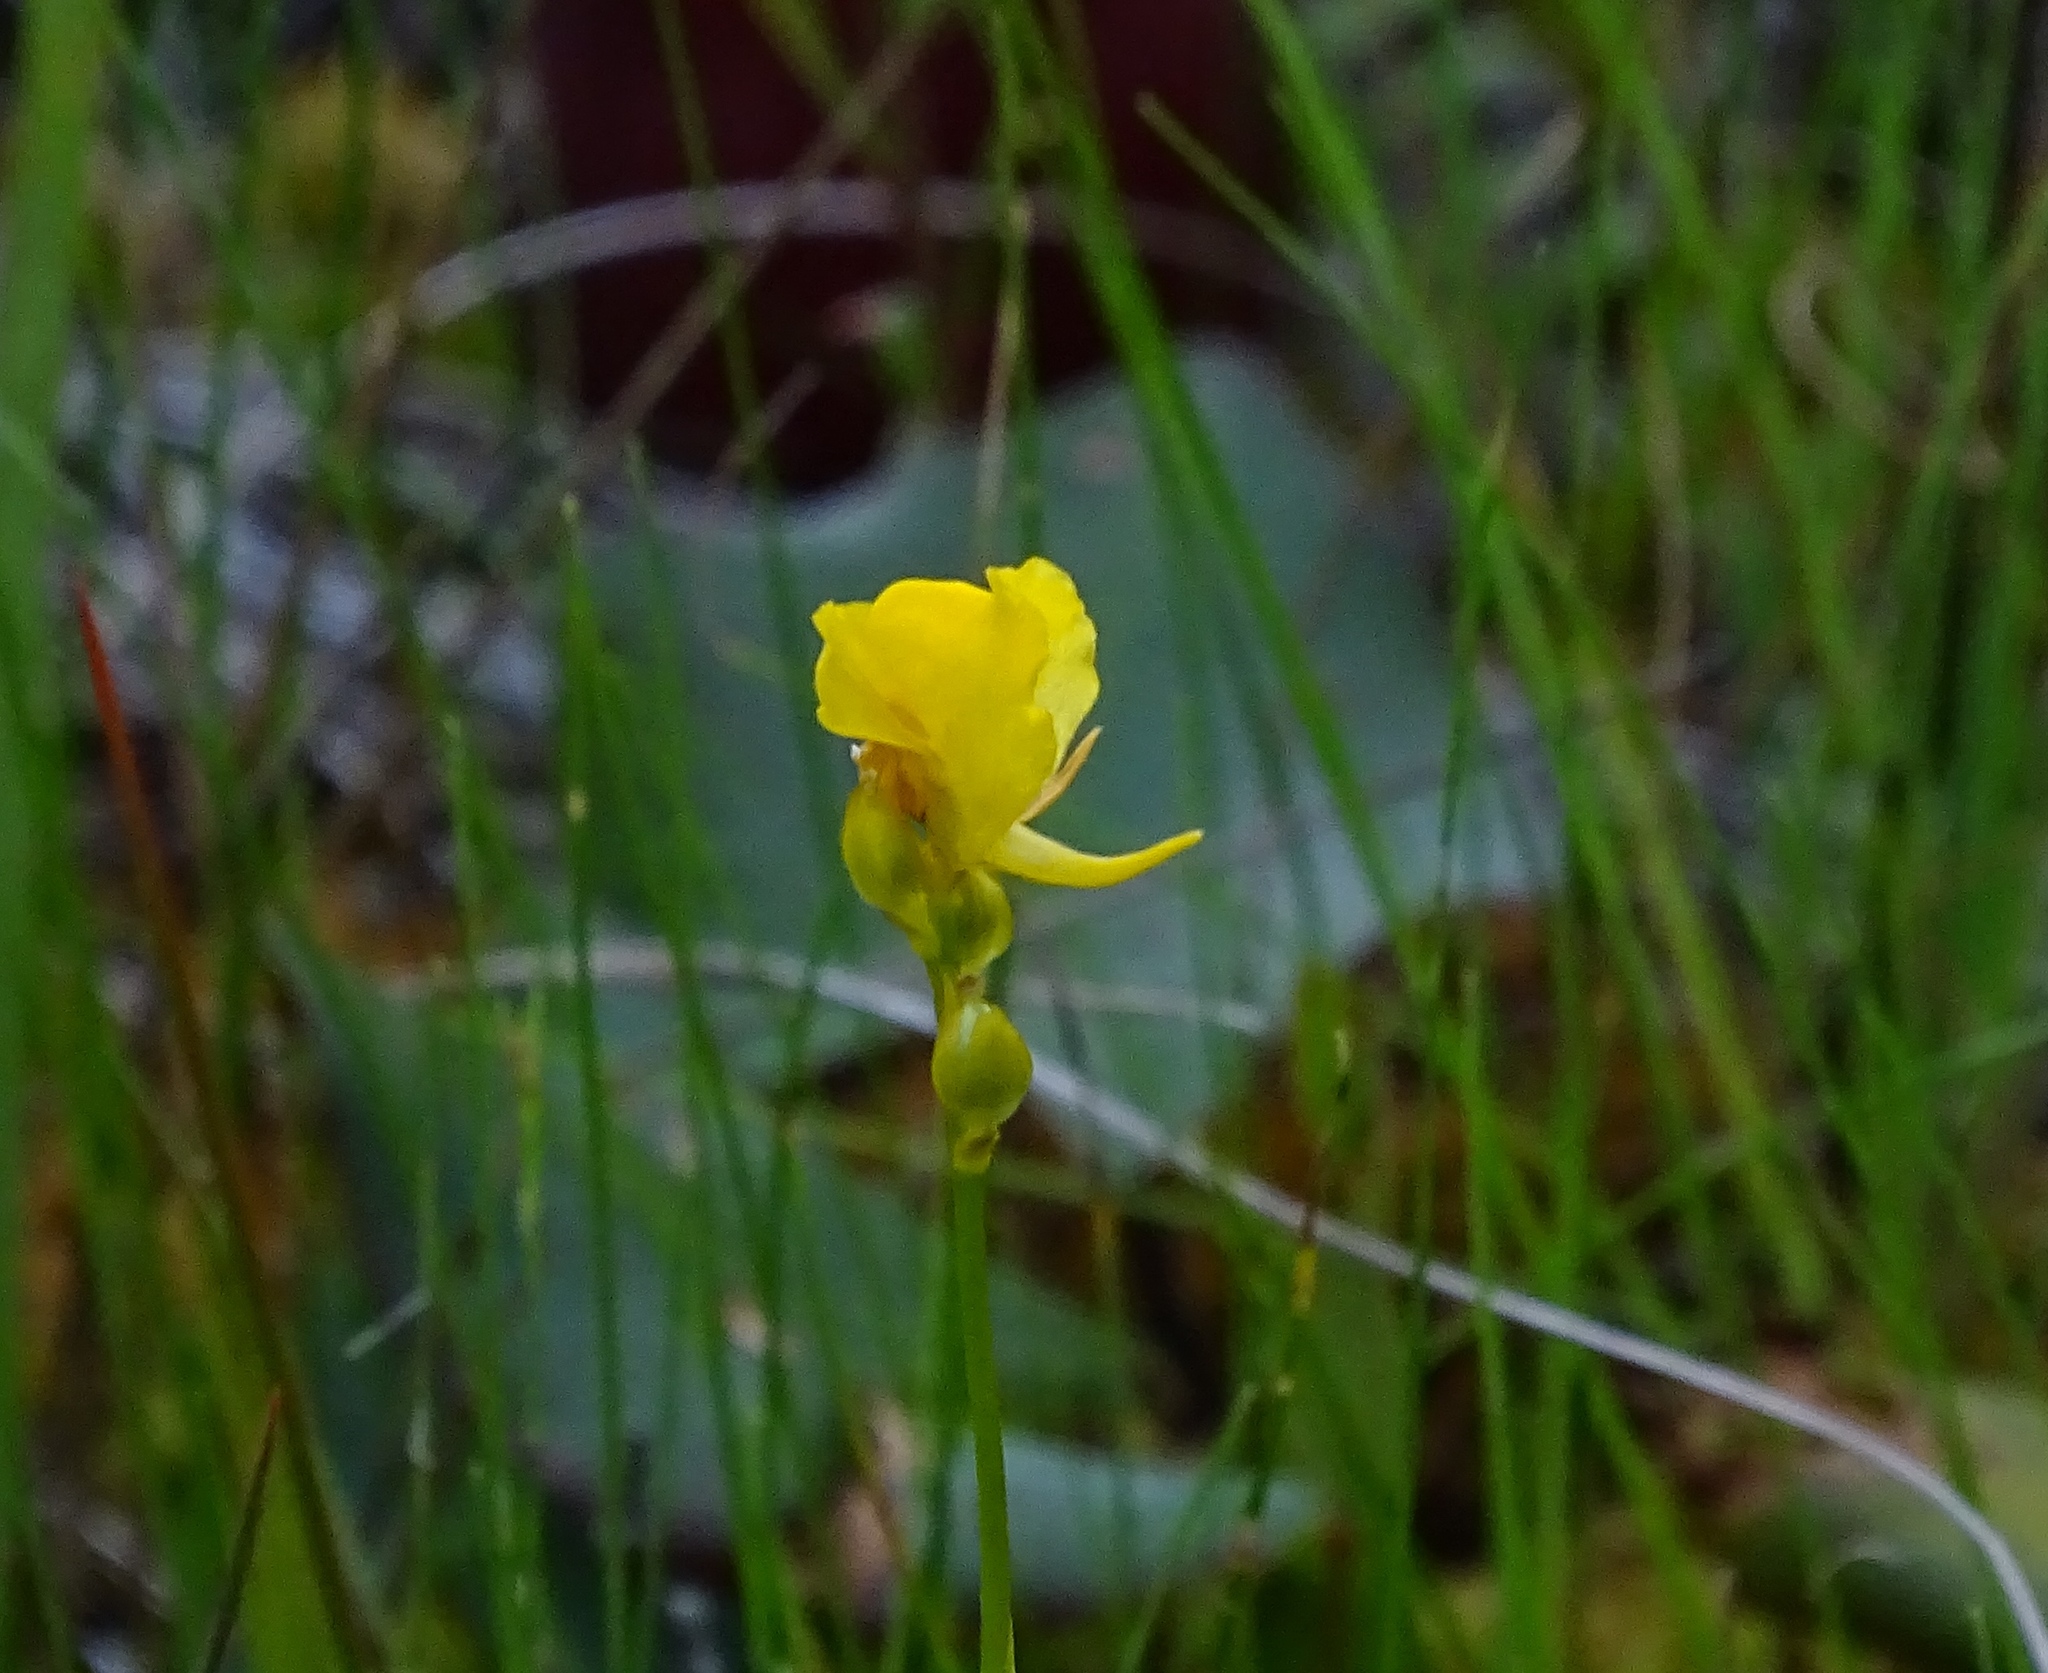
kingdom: Plantae
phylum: Tracheophyta
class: Magnoliopsida
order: Lamiales
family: Lentibulariaceae
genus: Utricularia
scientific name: Utricularia cornuta
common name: Horned bladderwort
